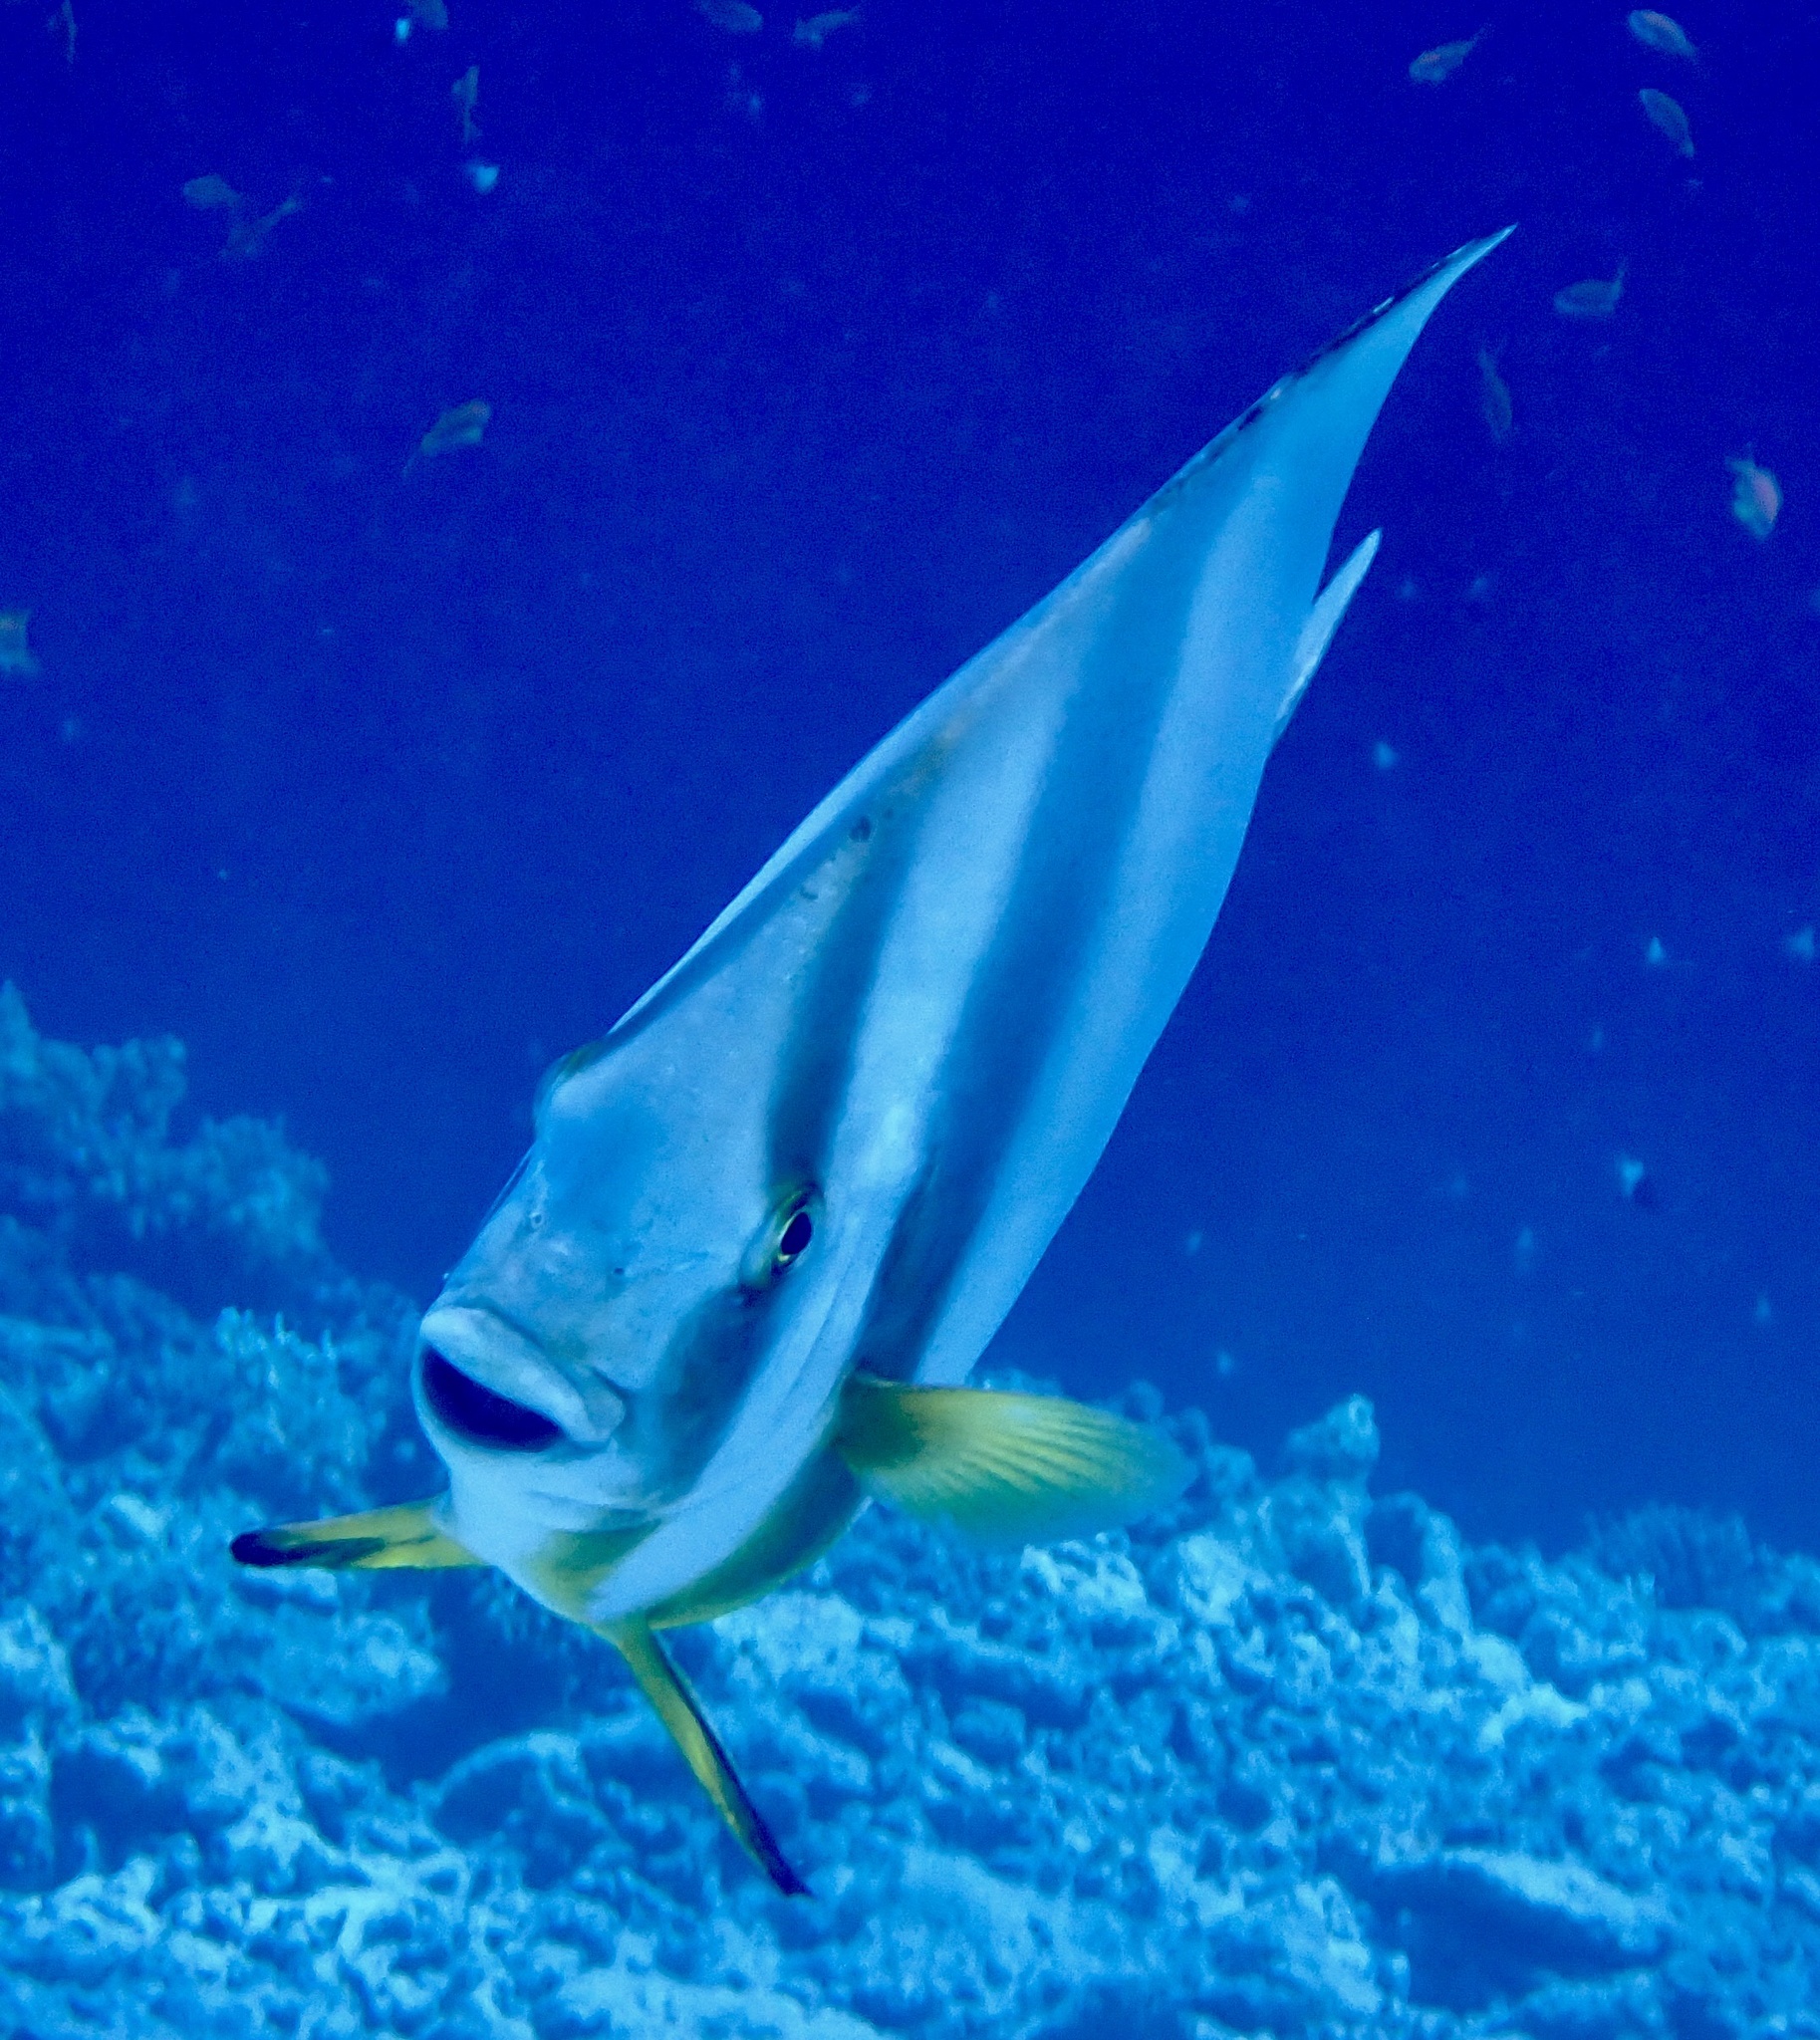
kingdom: Animalia
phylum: Chordata
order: Perciformes
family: Ephippidae
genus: Platax
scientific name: Platax teira
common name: Longfin baitfish
